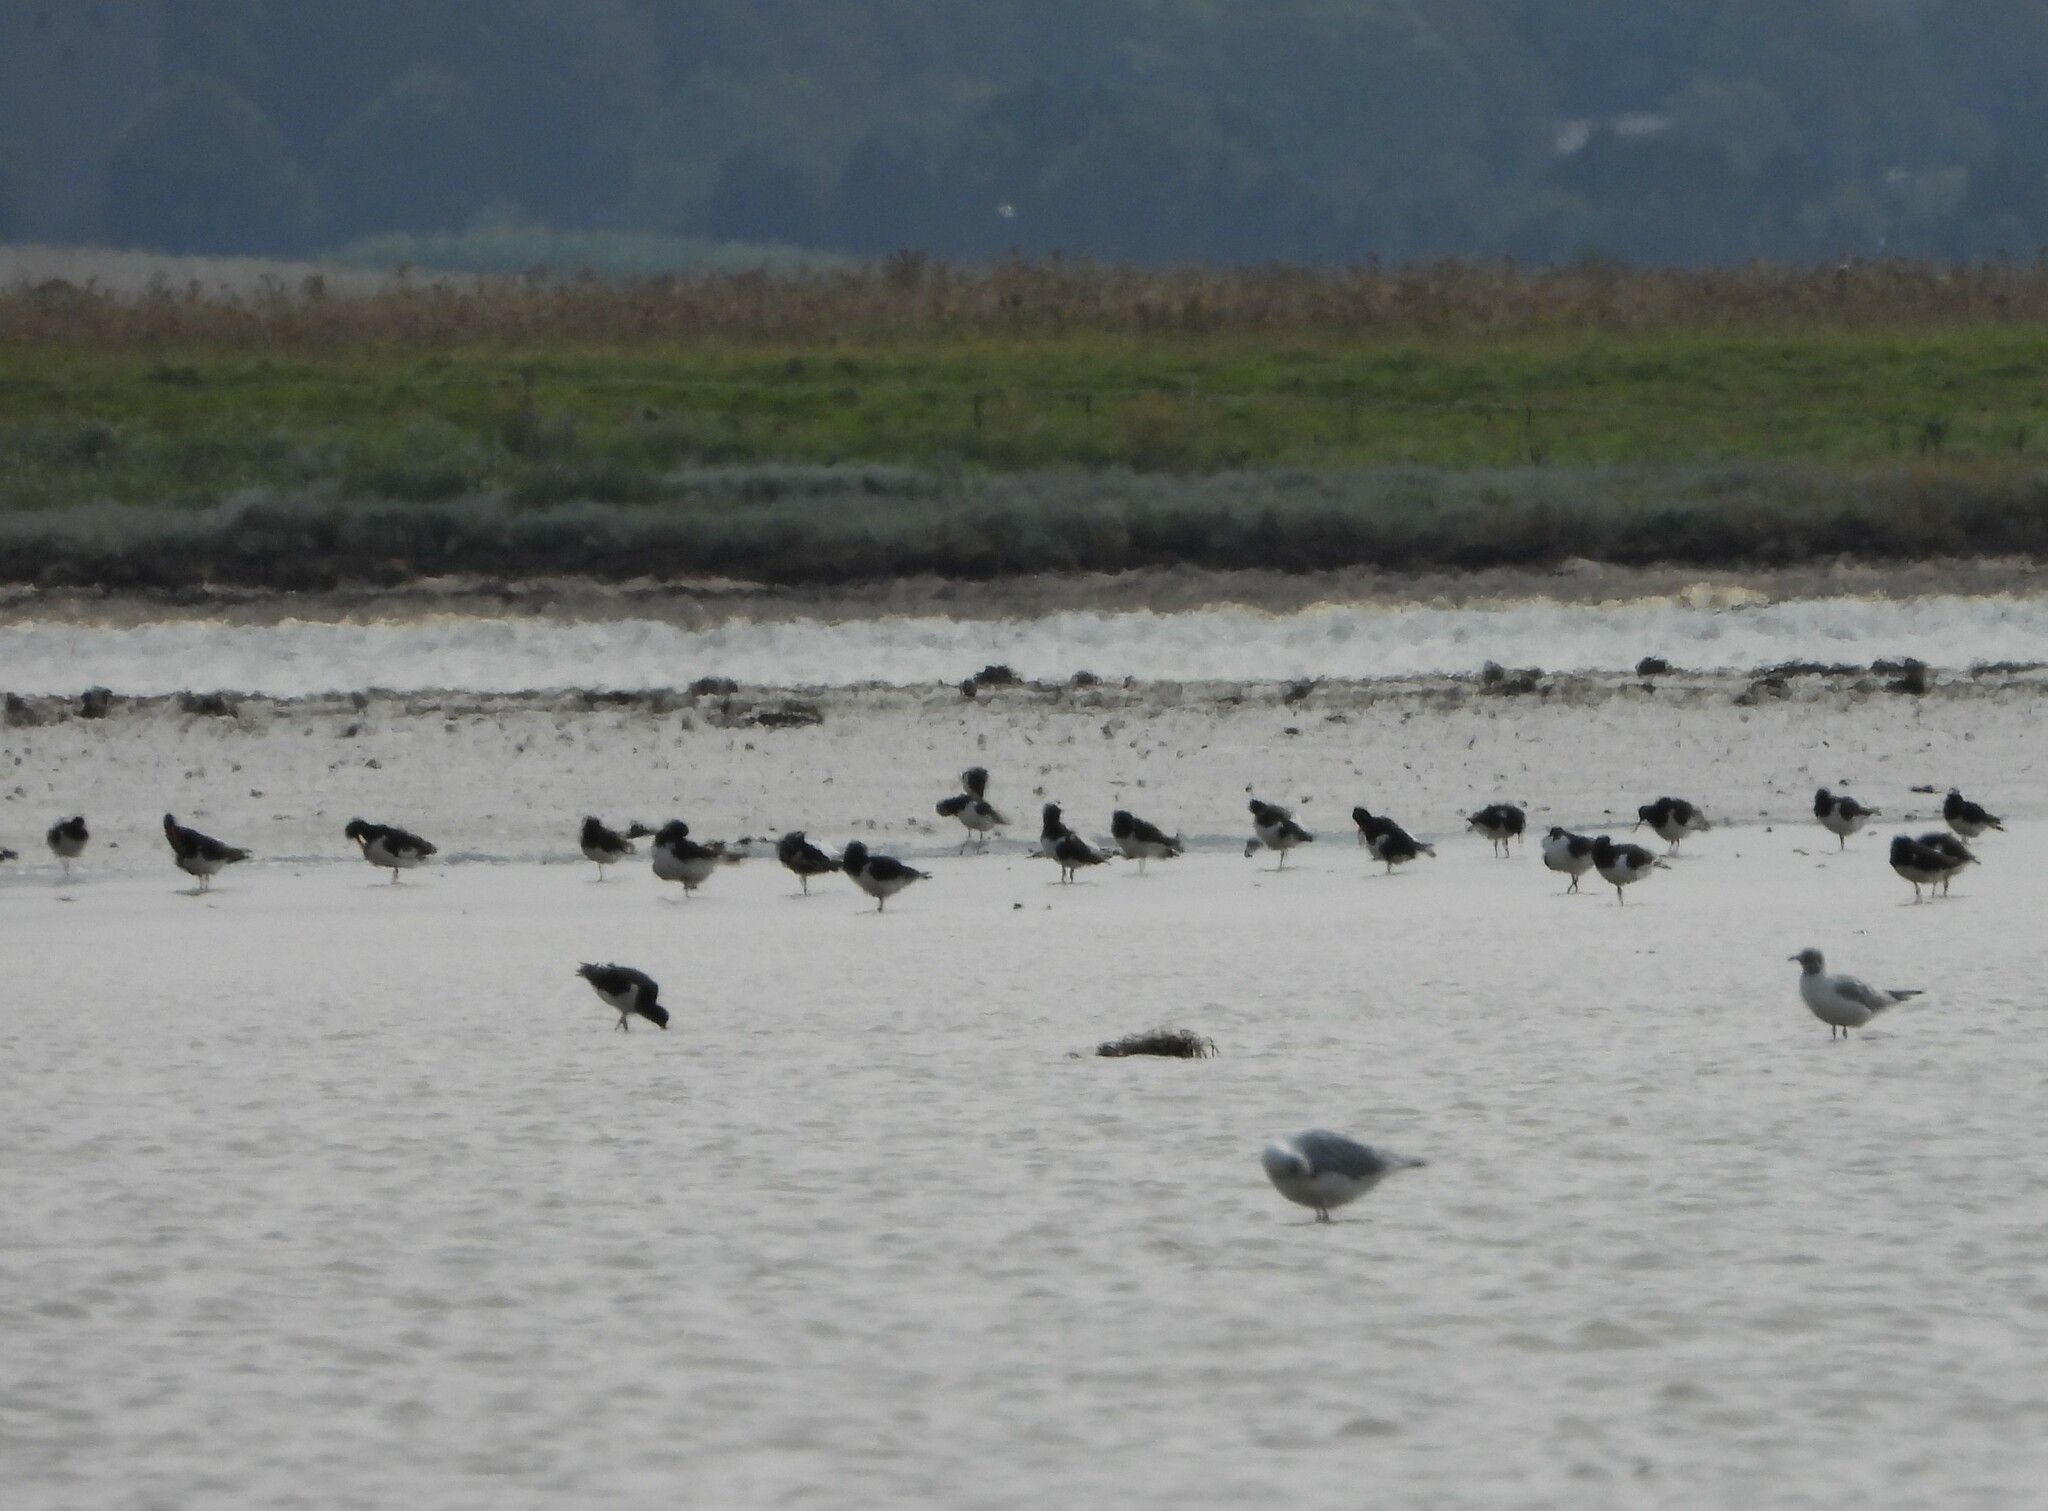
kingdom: Animalia
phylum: Chordata
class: Aves
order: Charadriiformes
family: Haematopodidae
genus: Haematopus
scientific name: Haematopus ostralegus
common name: Eurasian oystercatcher
